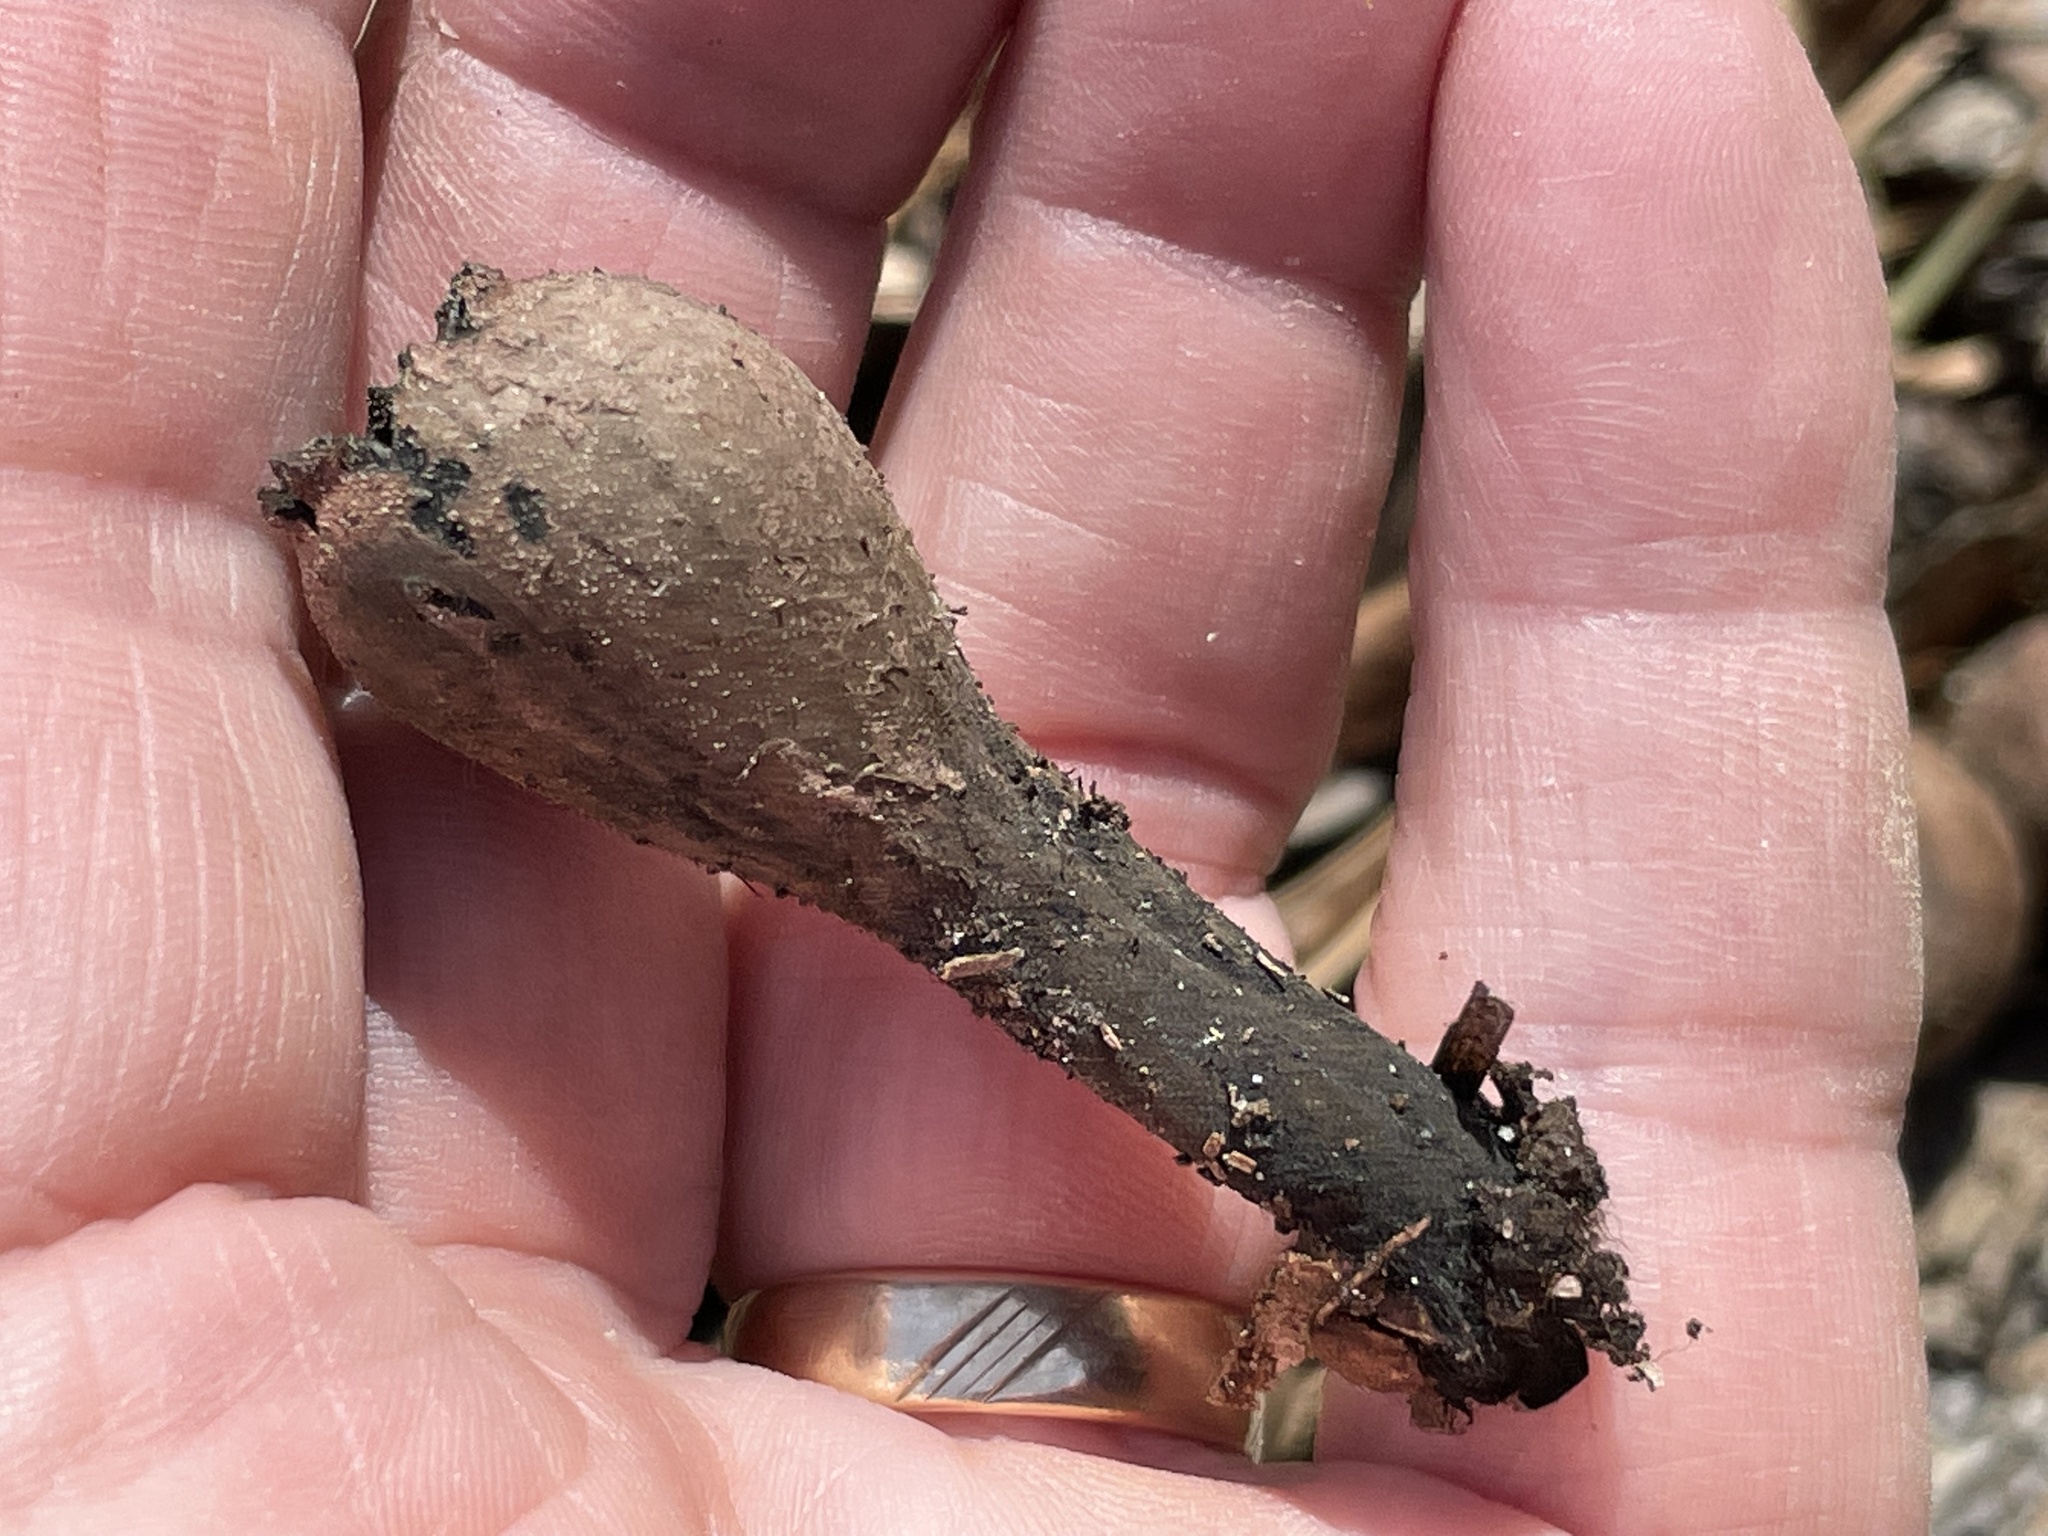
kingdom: Fungi
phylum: Ascomycota
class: Pezizomycetes
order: Pezizales
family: Sarcosomataceae
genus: Urnula
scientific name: Urnula craterium
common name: Devil's urn
